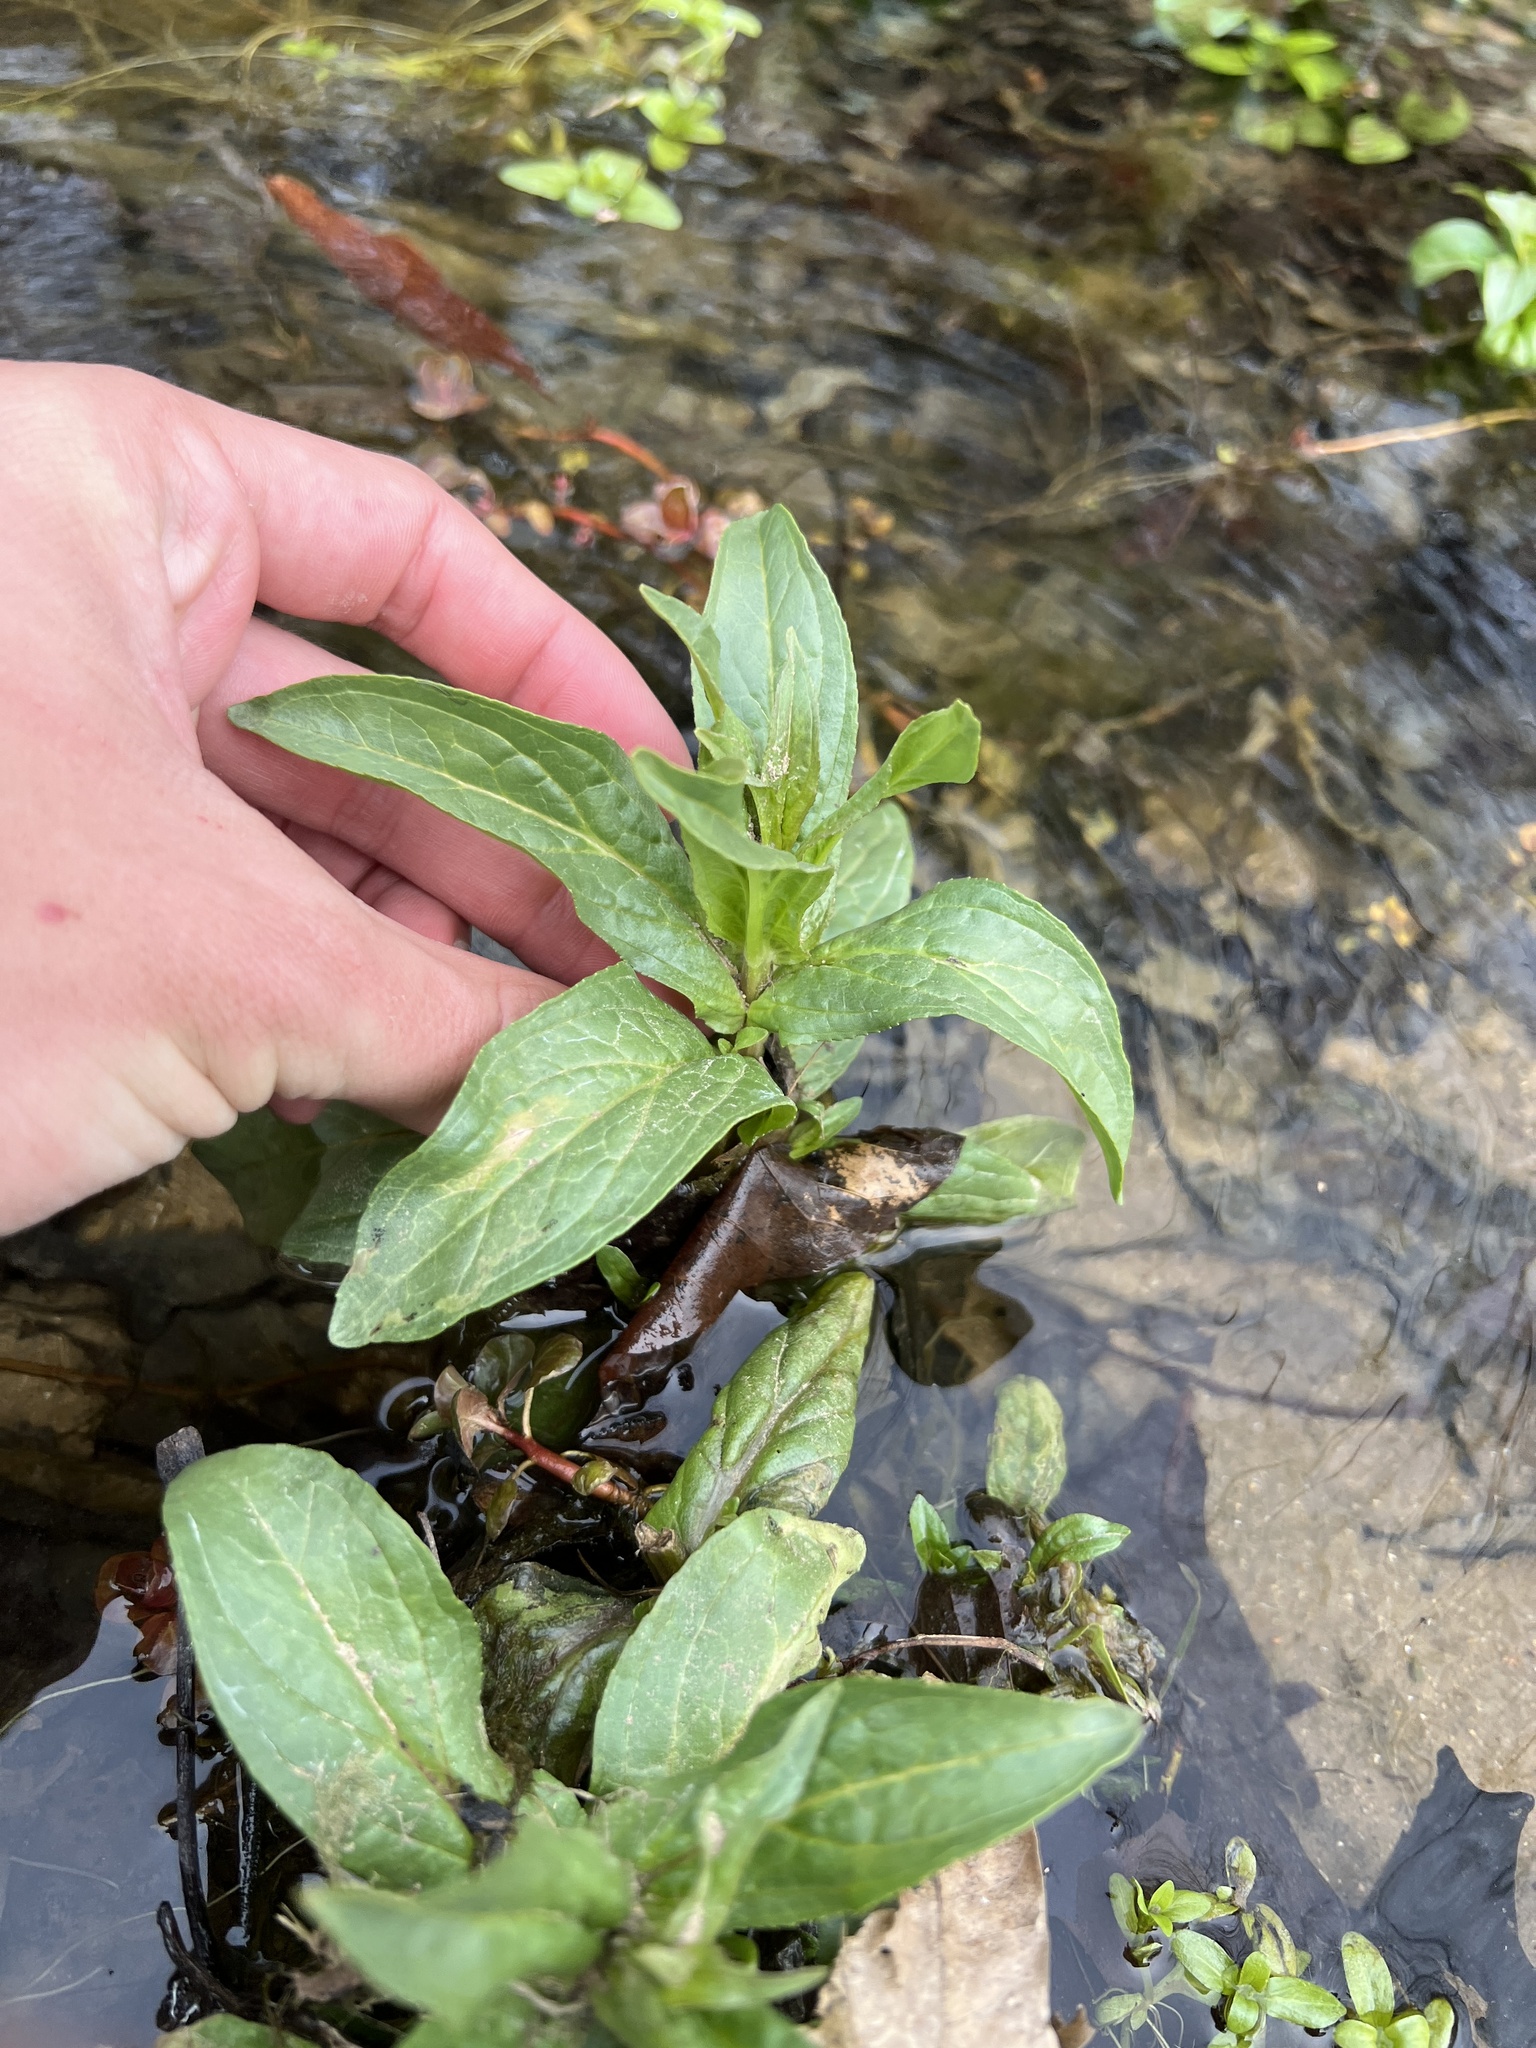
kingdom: Plantae
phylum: Tracheophyta
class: Magnoliopsida
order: Lamiales
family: Plantaginaceae
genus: Veronica
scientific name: Veronica anagallis-aquatica
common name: Water speedwell
